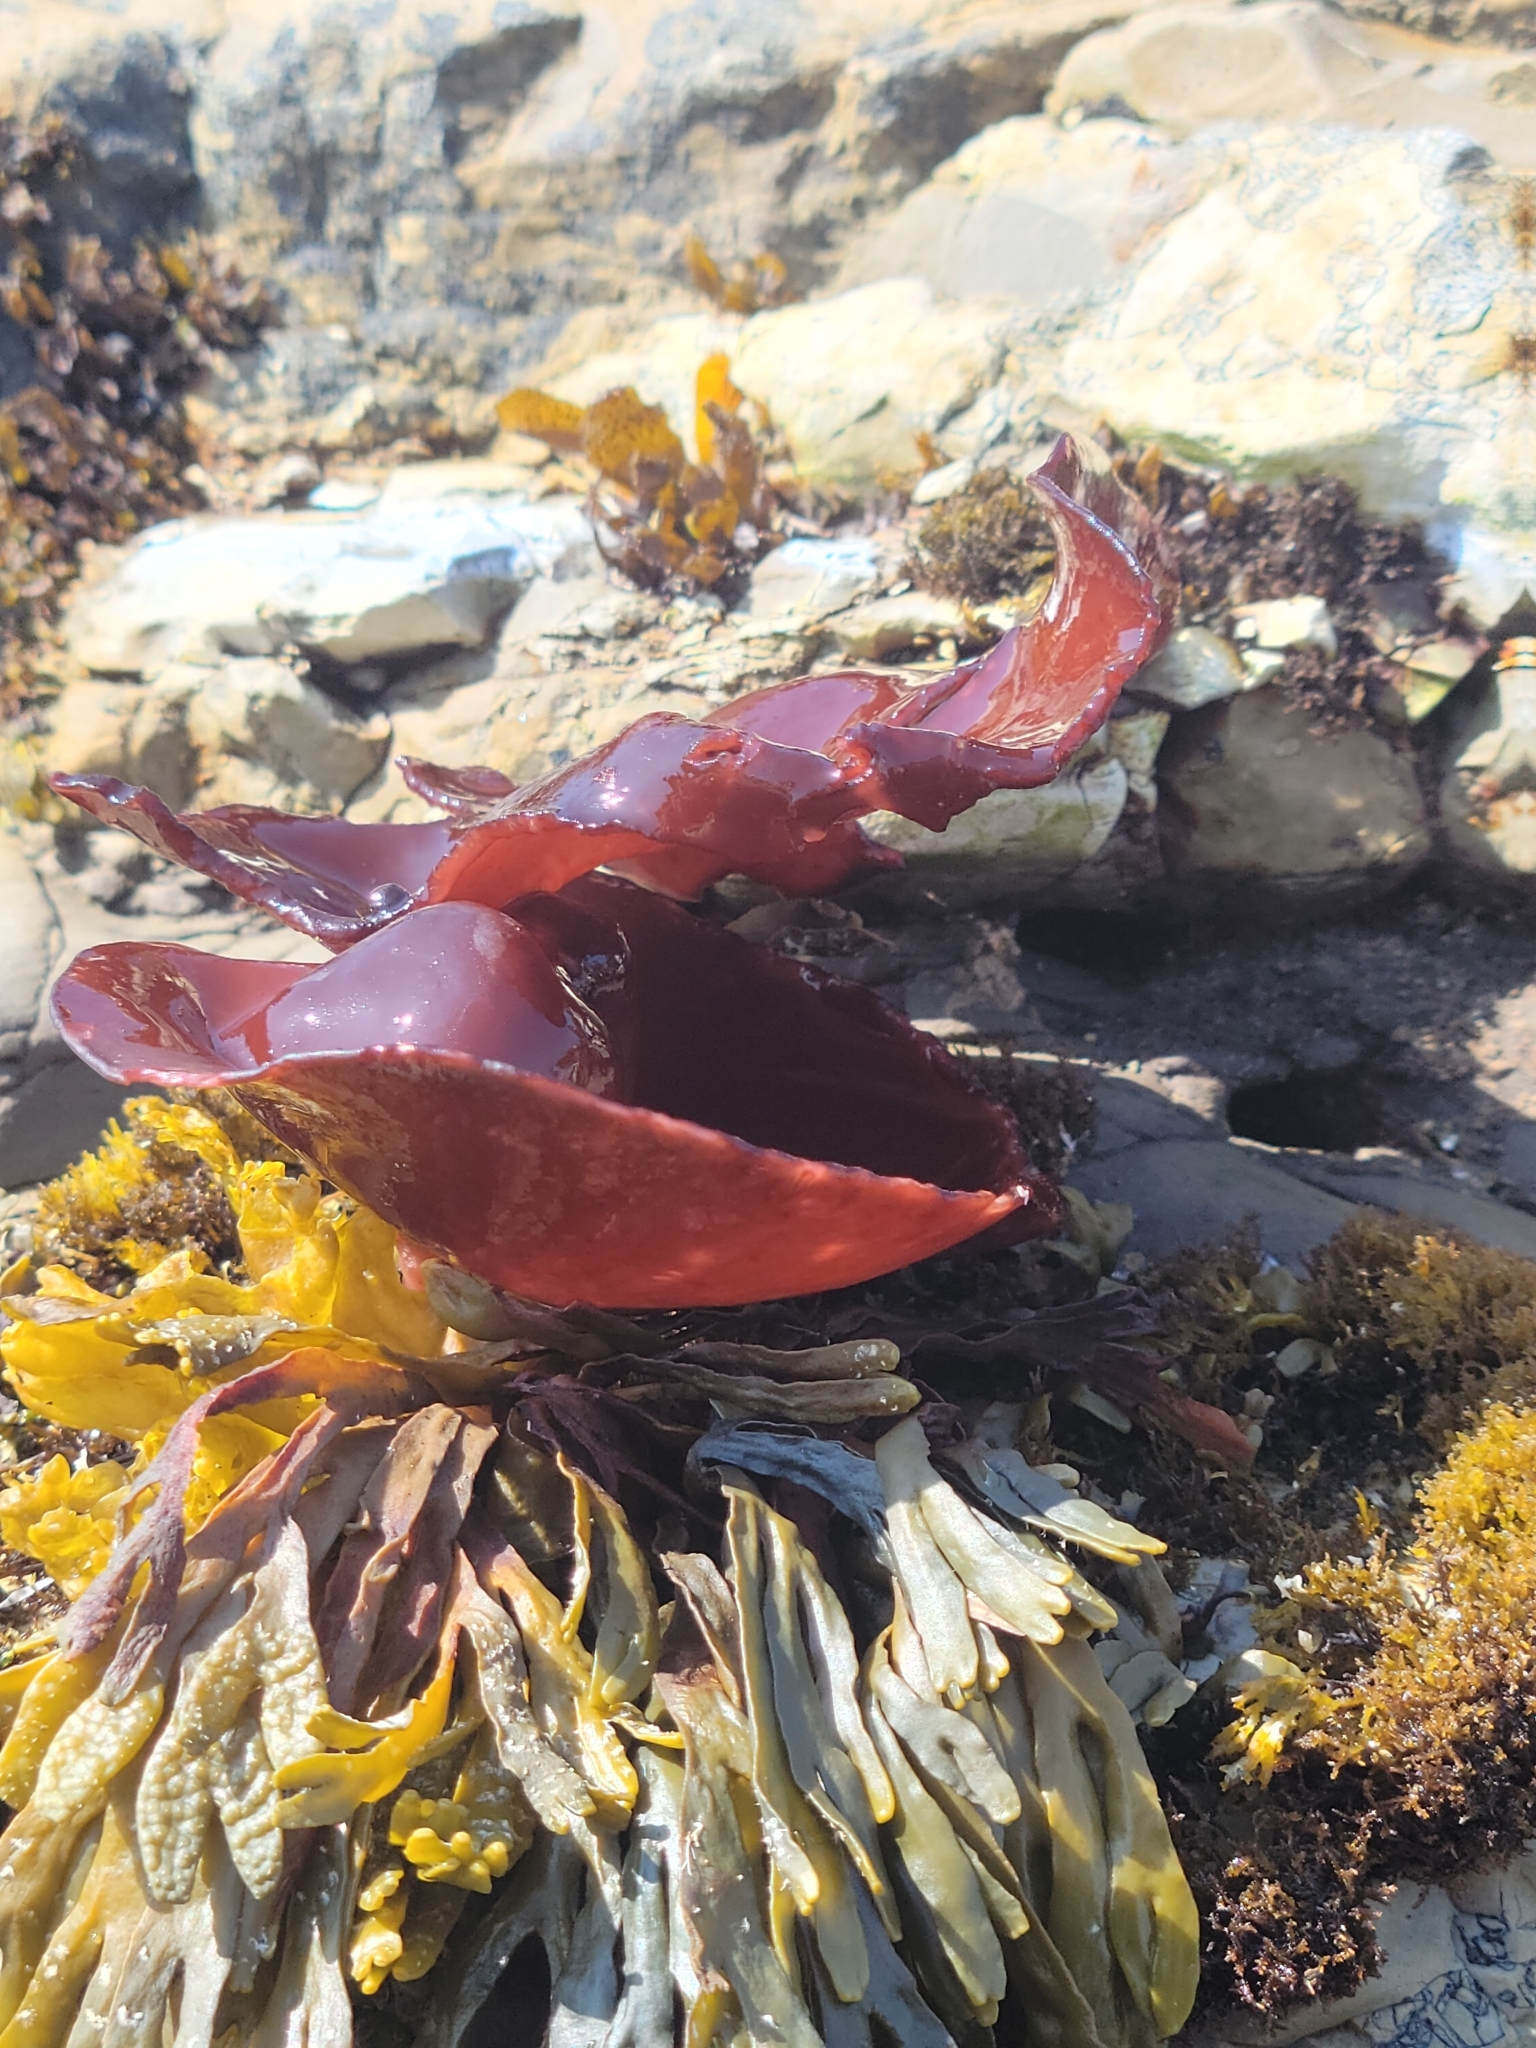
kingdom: Plantae
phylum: Rhodophyta
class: Florideophyceae
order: Gigartinales
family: Dumontiaceae
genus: Constantinea
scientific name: Constantinea rosa-marina
